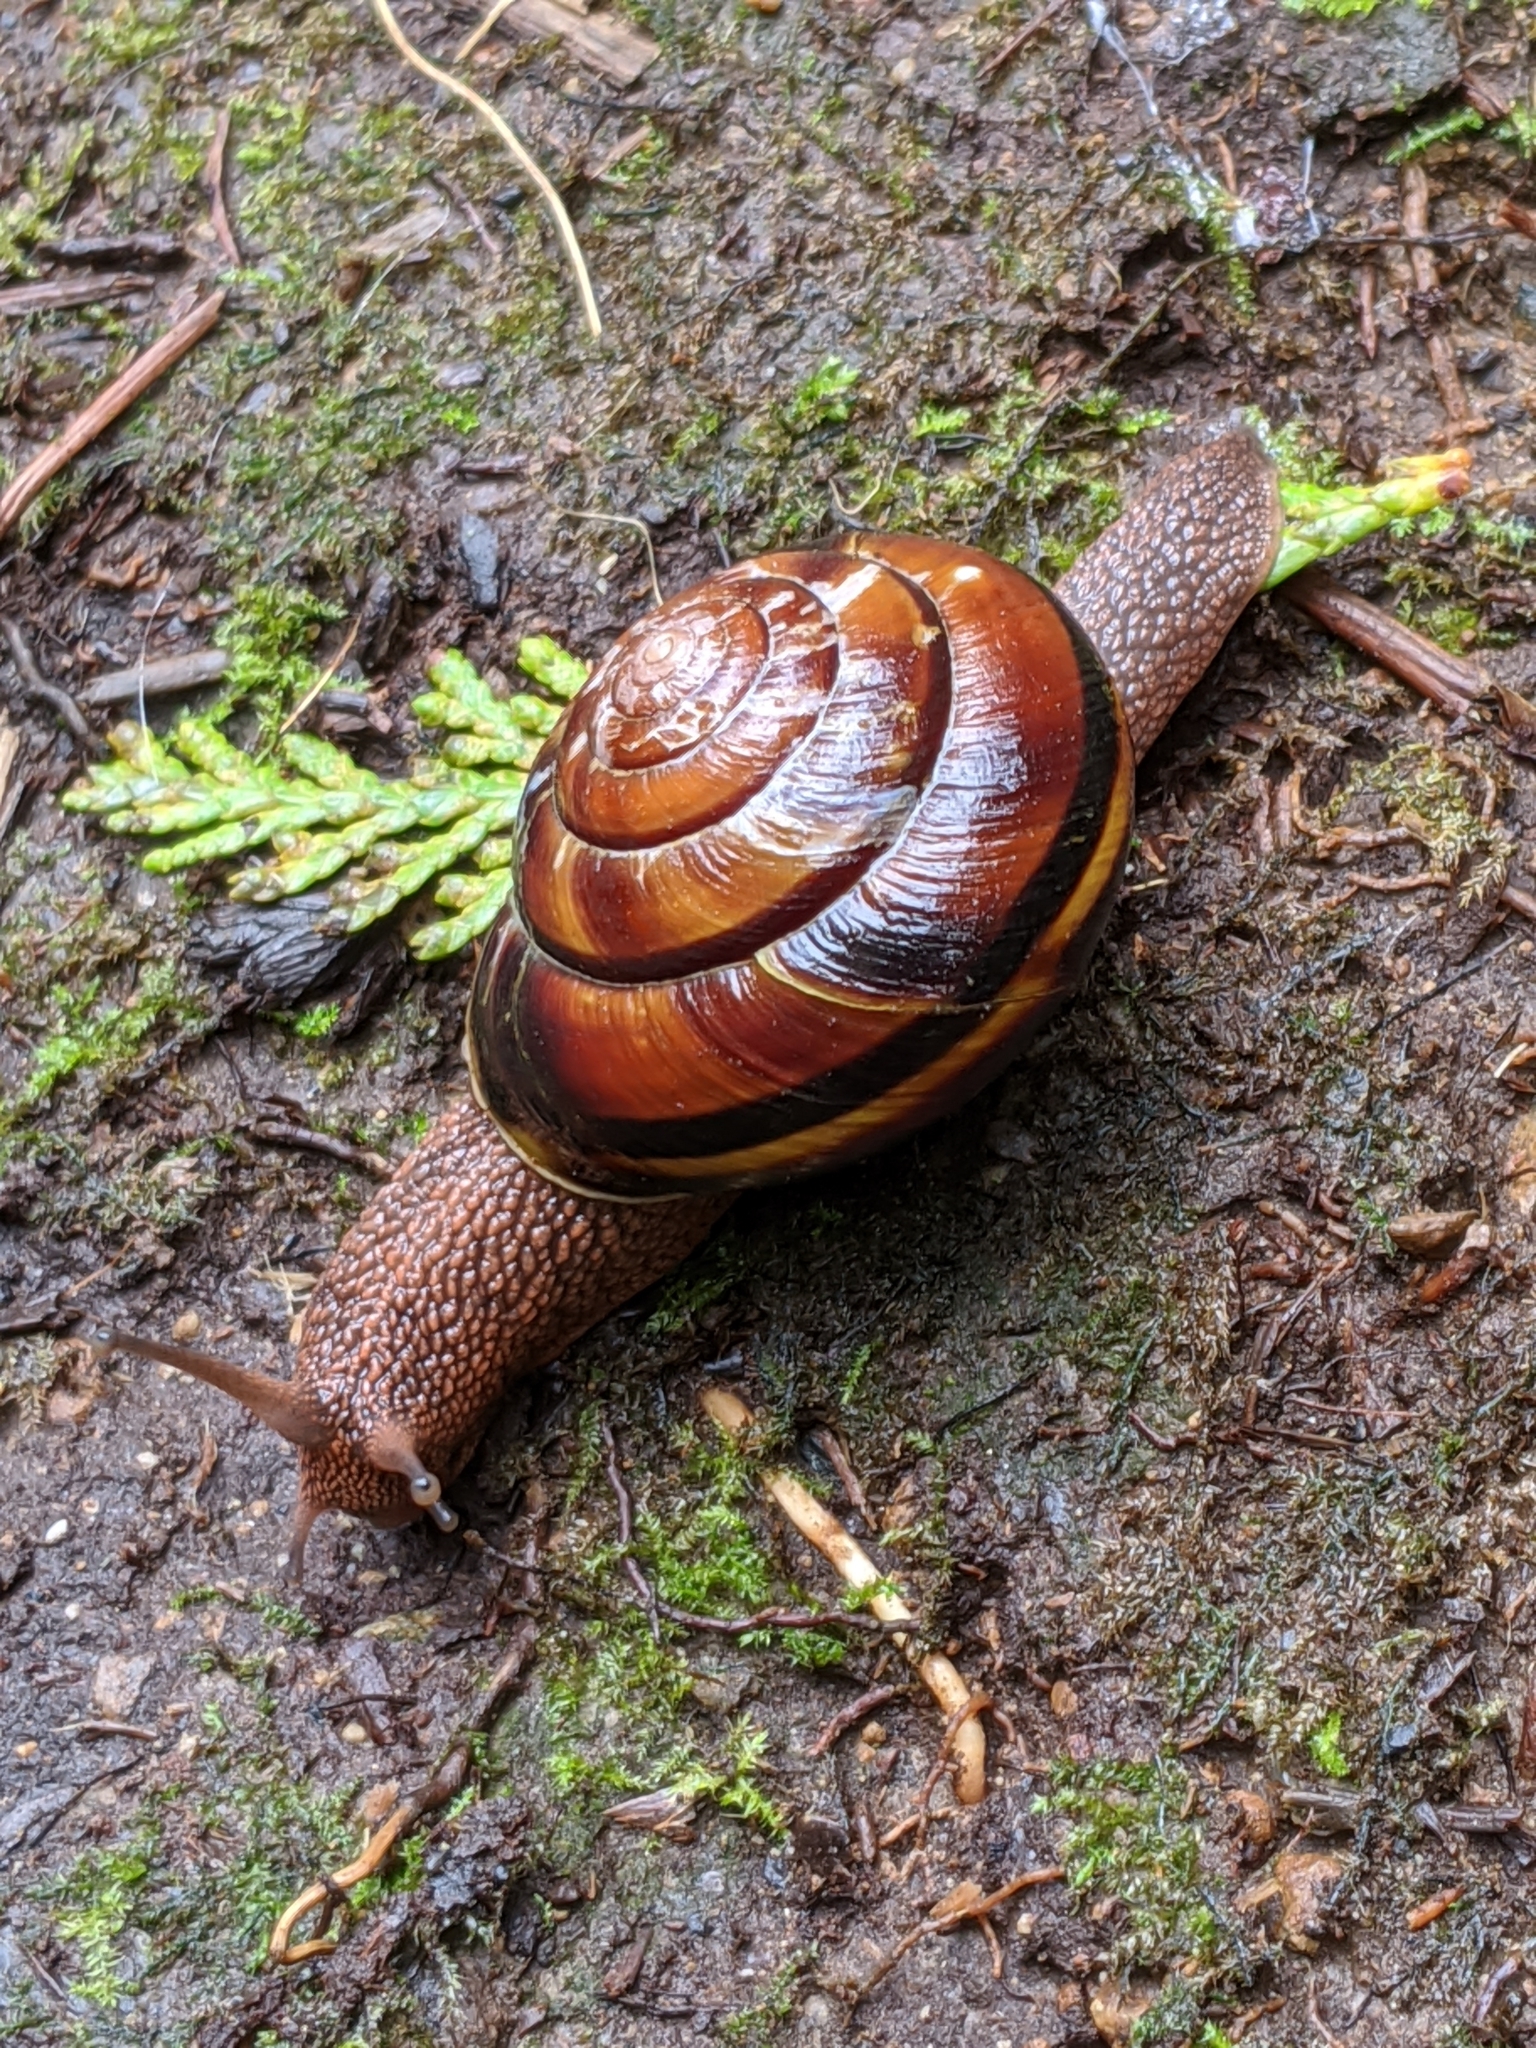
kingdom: Animalia
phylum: Mollusca
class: Gastropoda
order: Stylommatophora
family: Xanthonychidae
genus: Monadenia
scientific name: Monadenia fidelis
